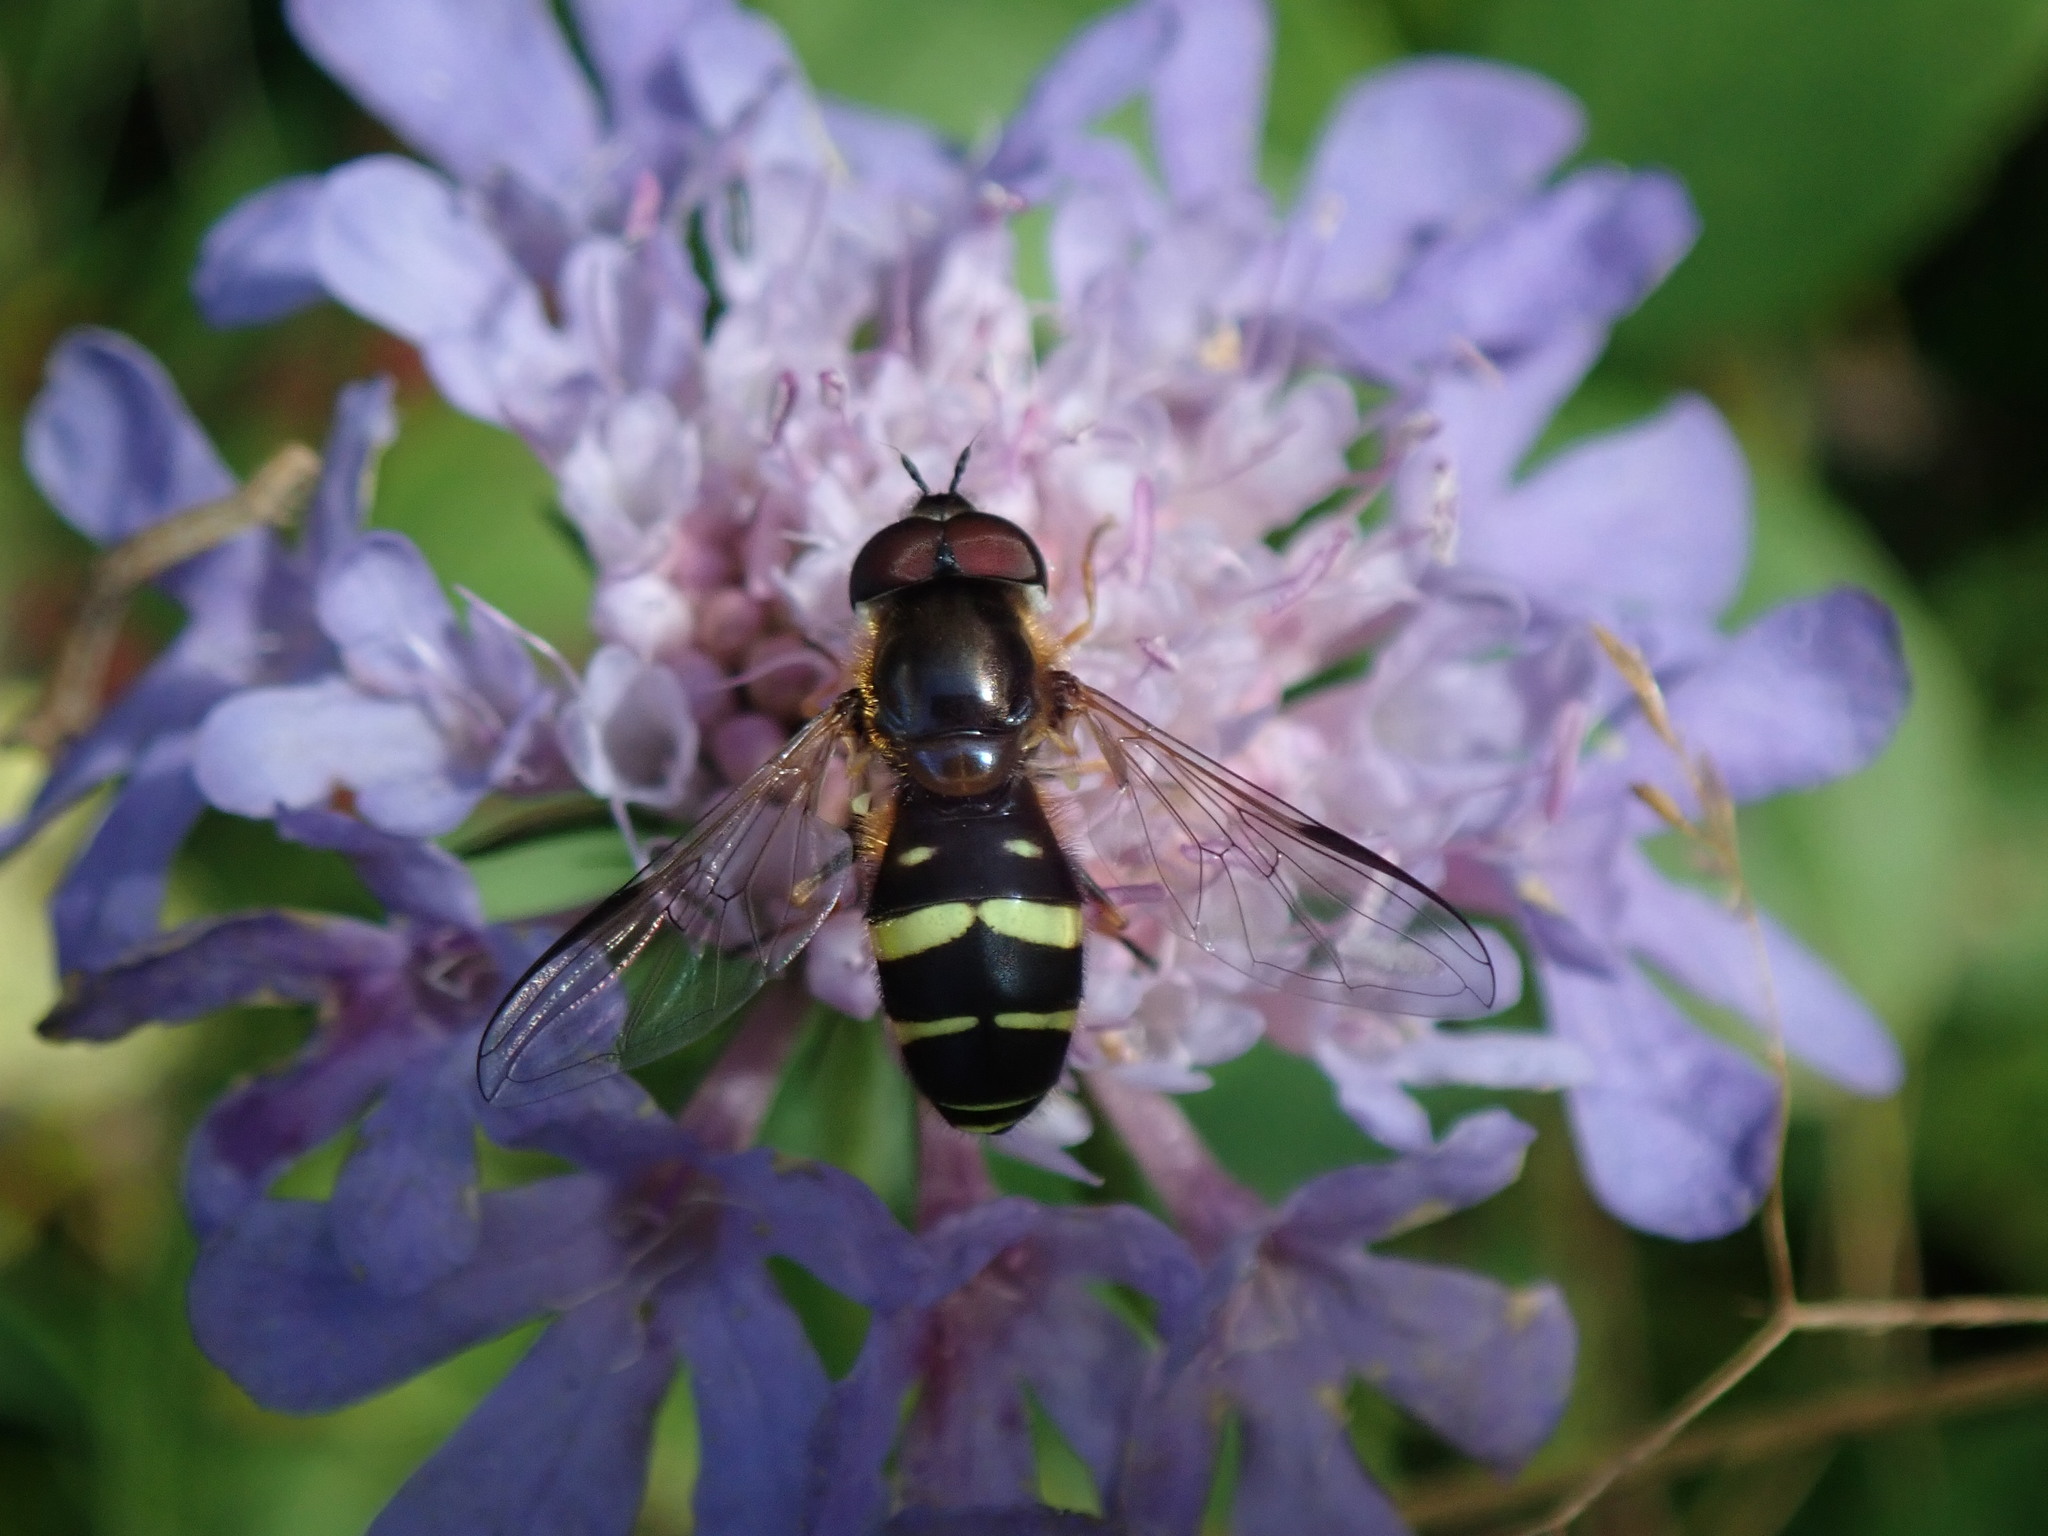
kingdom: Animalia
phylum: Arthropoda
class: Insecta
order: Diptera
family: Syrphidae
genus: Dasysyrphus
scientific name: Dasysyrphus tricinctus
